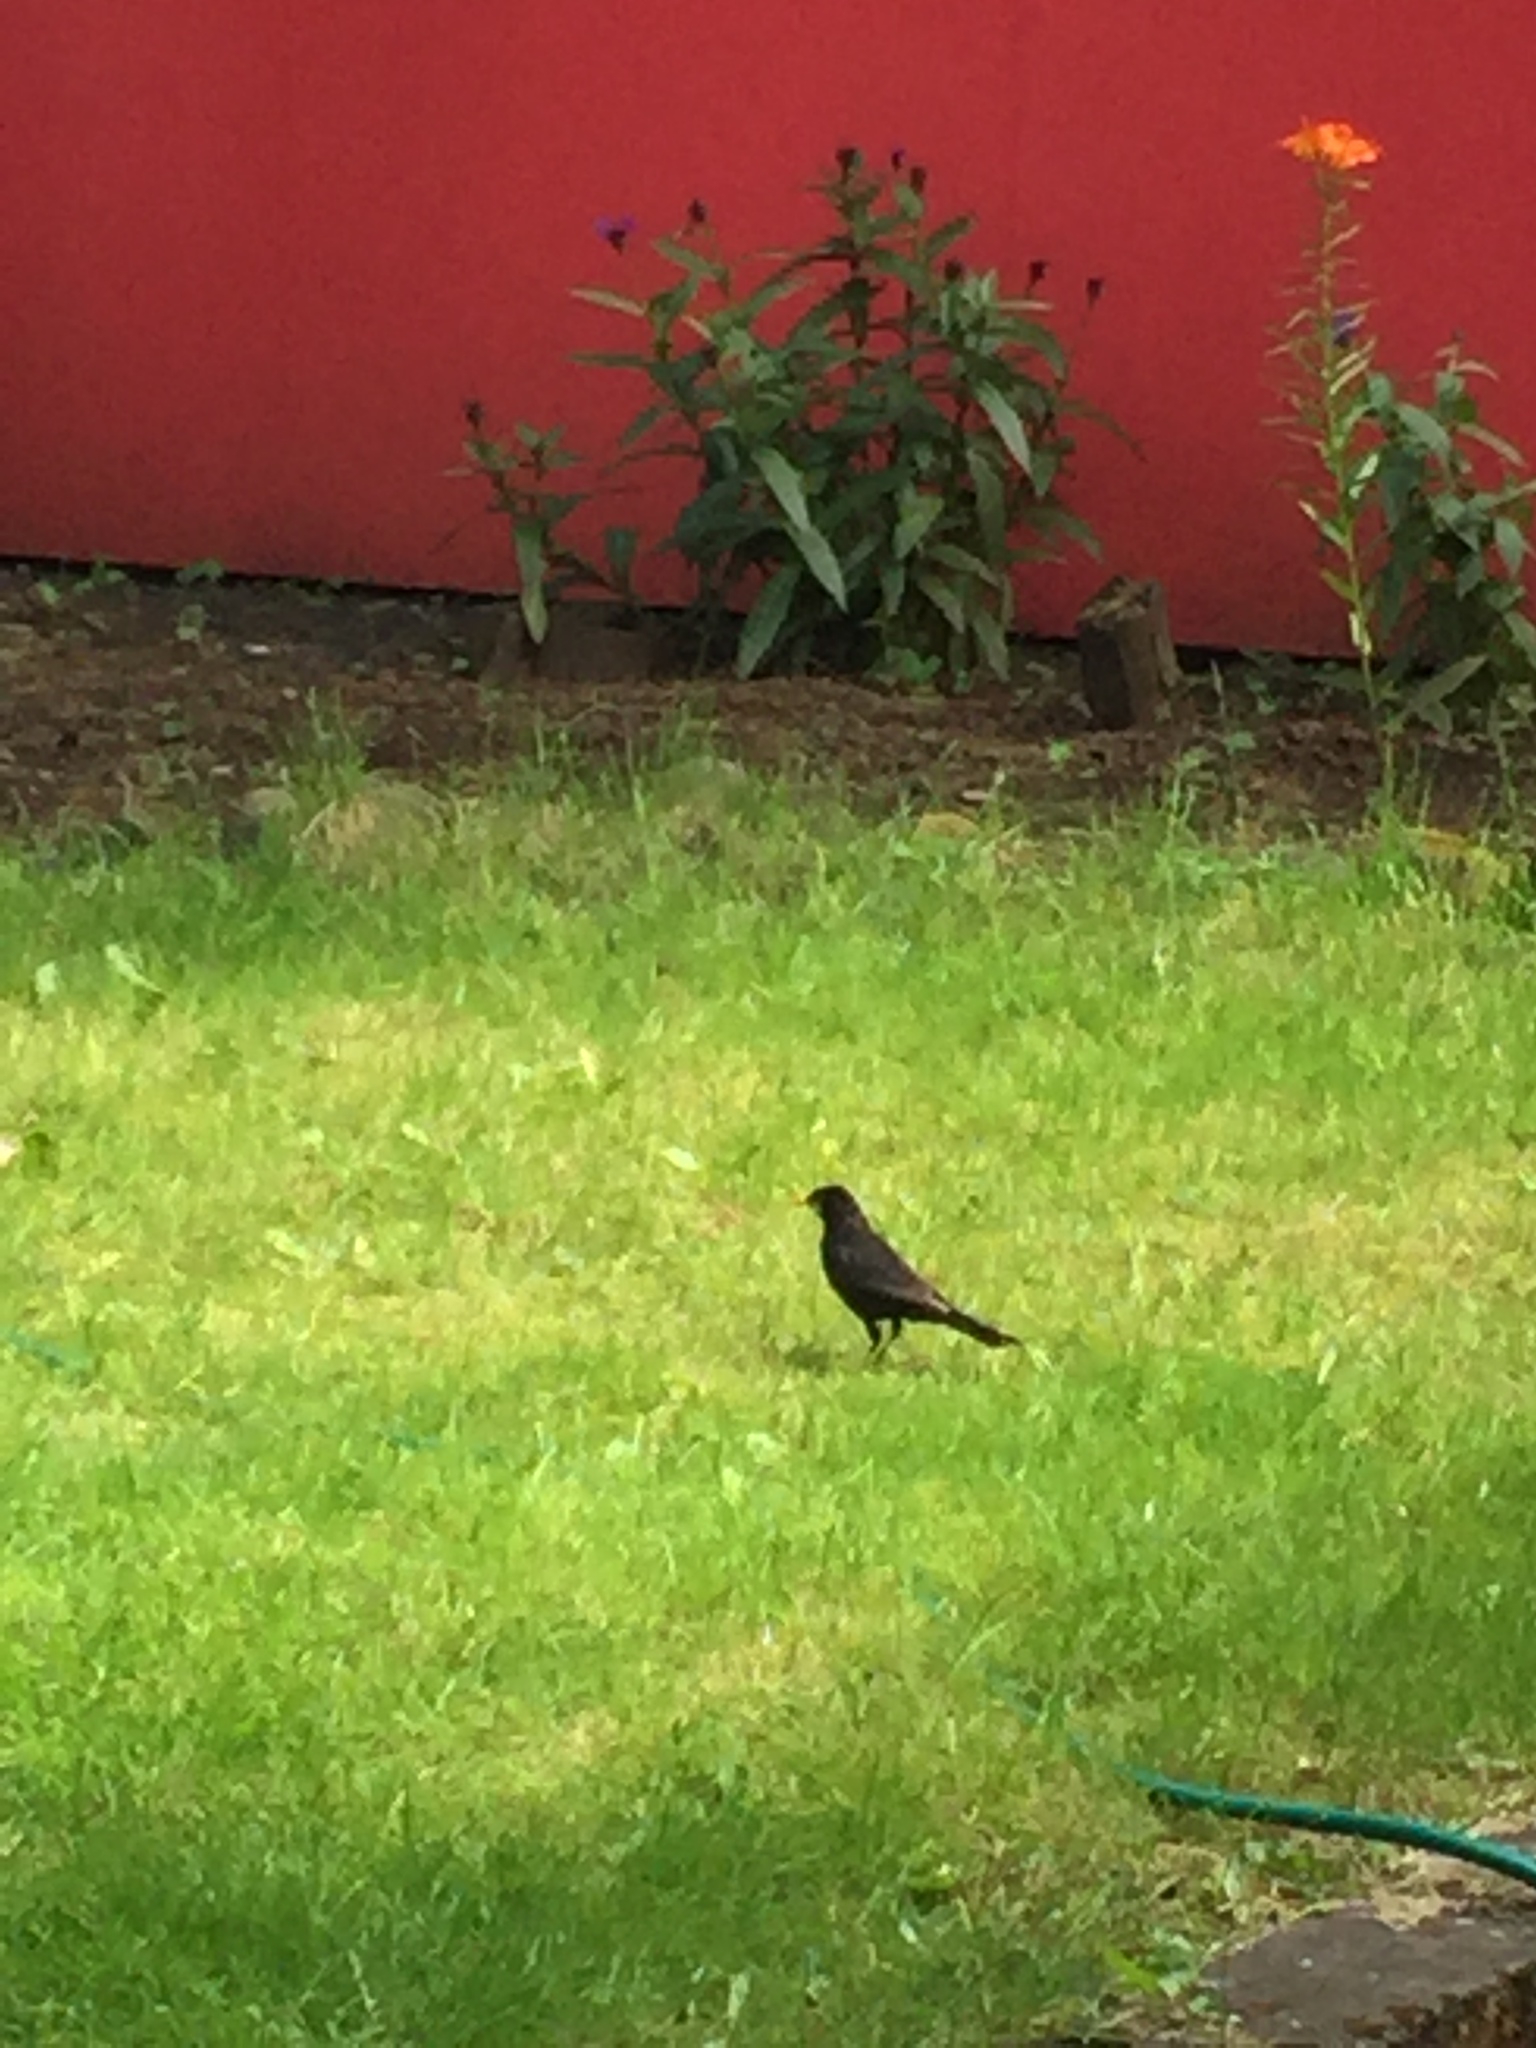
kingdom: Animalia
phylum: Chordata
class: Aves
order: Passeriformes
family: Turdidae
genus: Turdus
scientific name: Turdus merula
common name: Common blackbird
